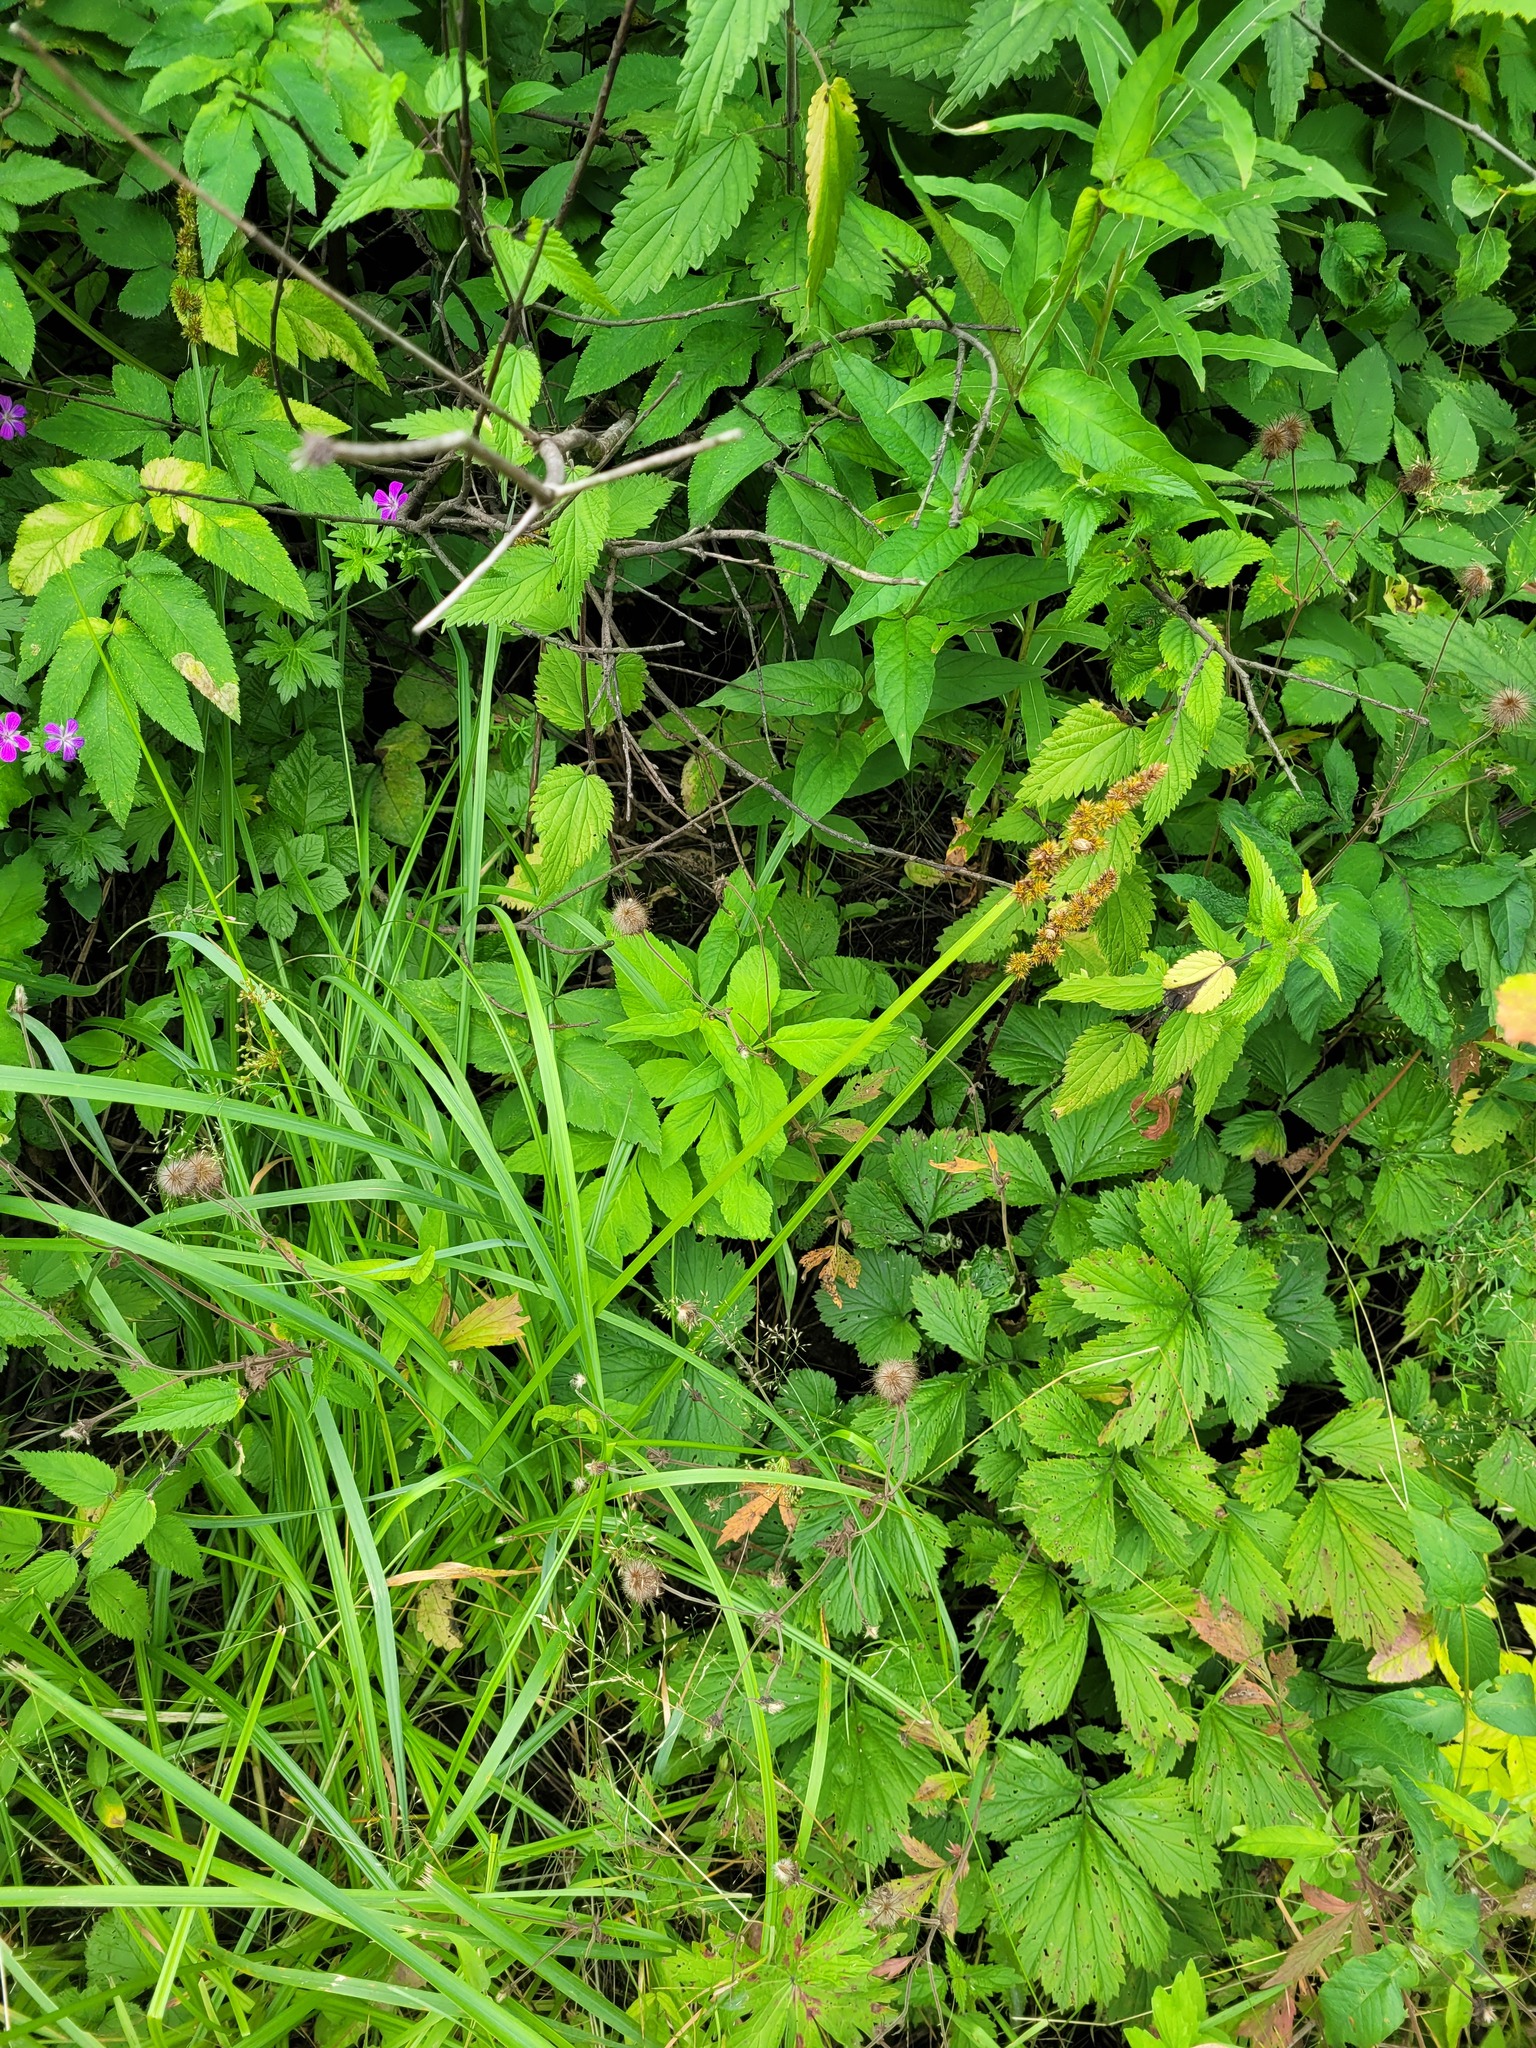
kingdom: Plantae
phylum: Tracheophyta
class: Liliopsida
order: Poales
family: Cyperaceae
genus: Carex
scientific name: Carex vulpina
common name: True fox-sedge
